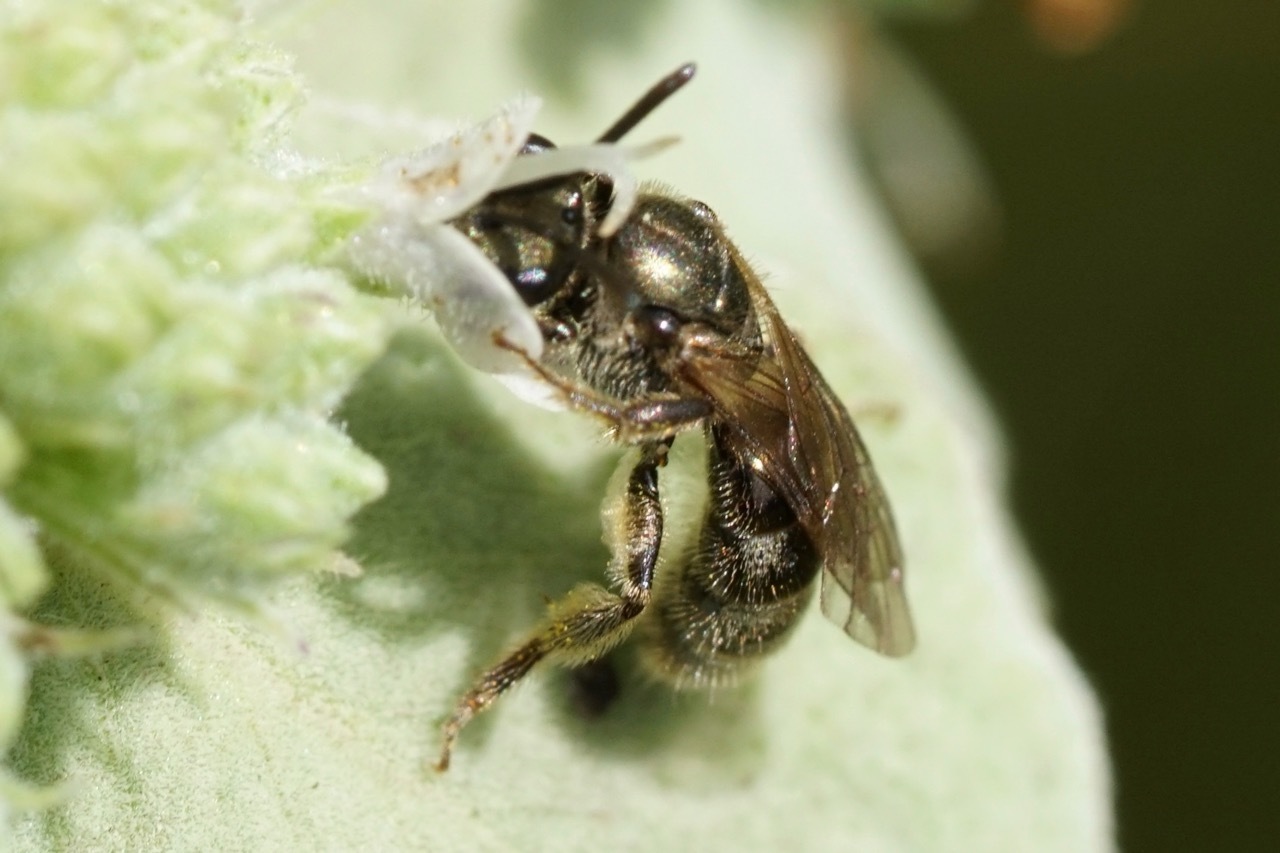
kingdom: Animalia
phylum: Arthropoda
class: Insecta
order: Hymenoptera
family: Halictidae
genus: Dialictus
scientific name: Dialictus
